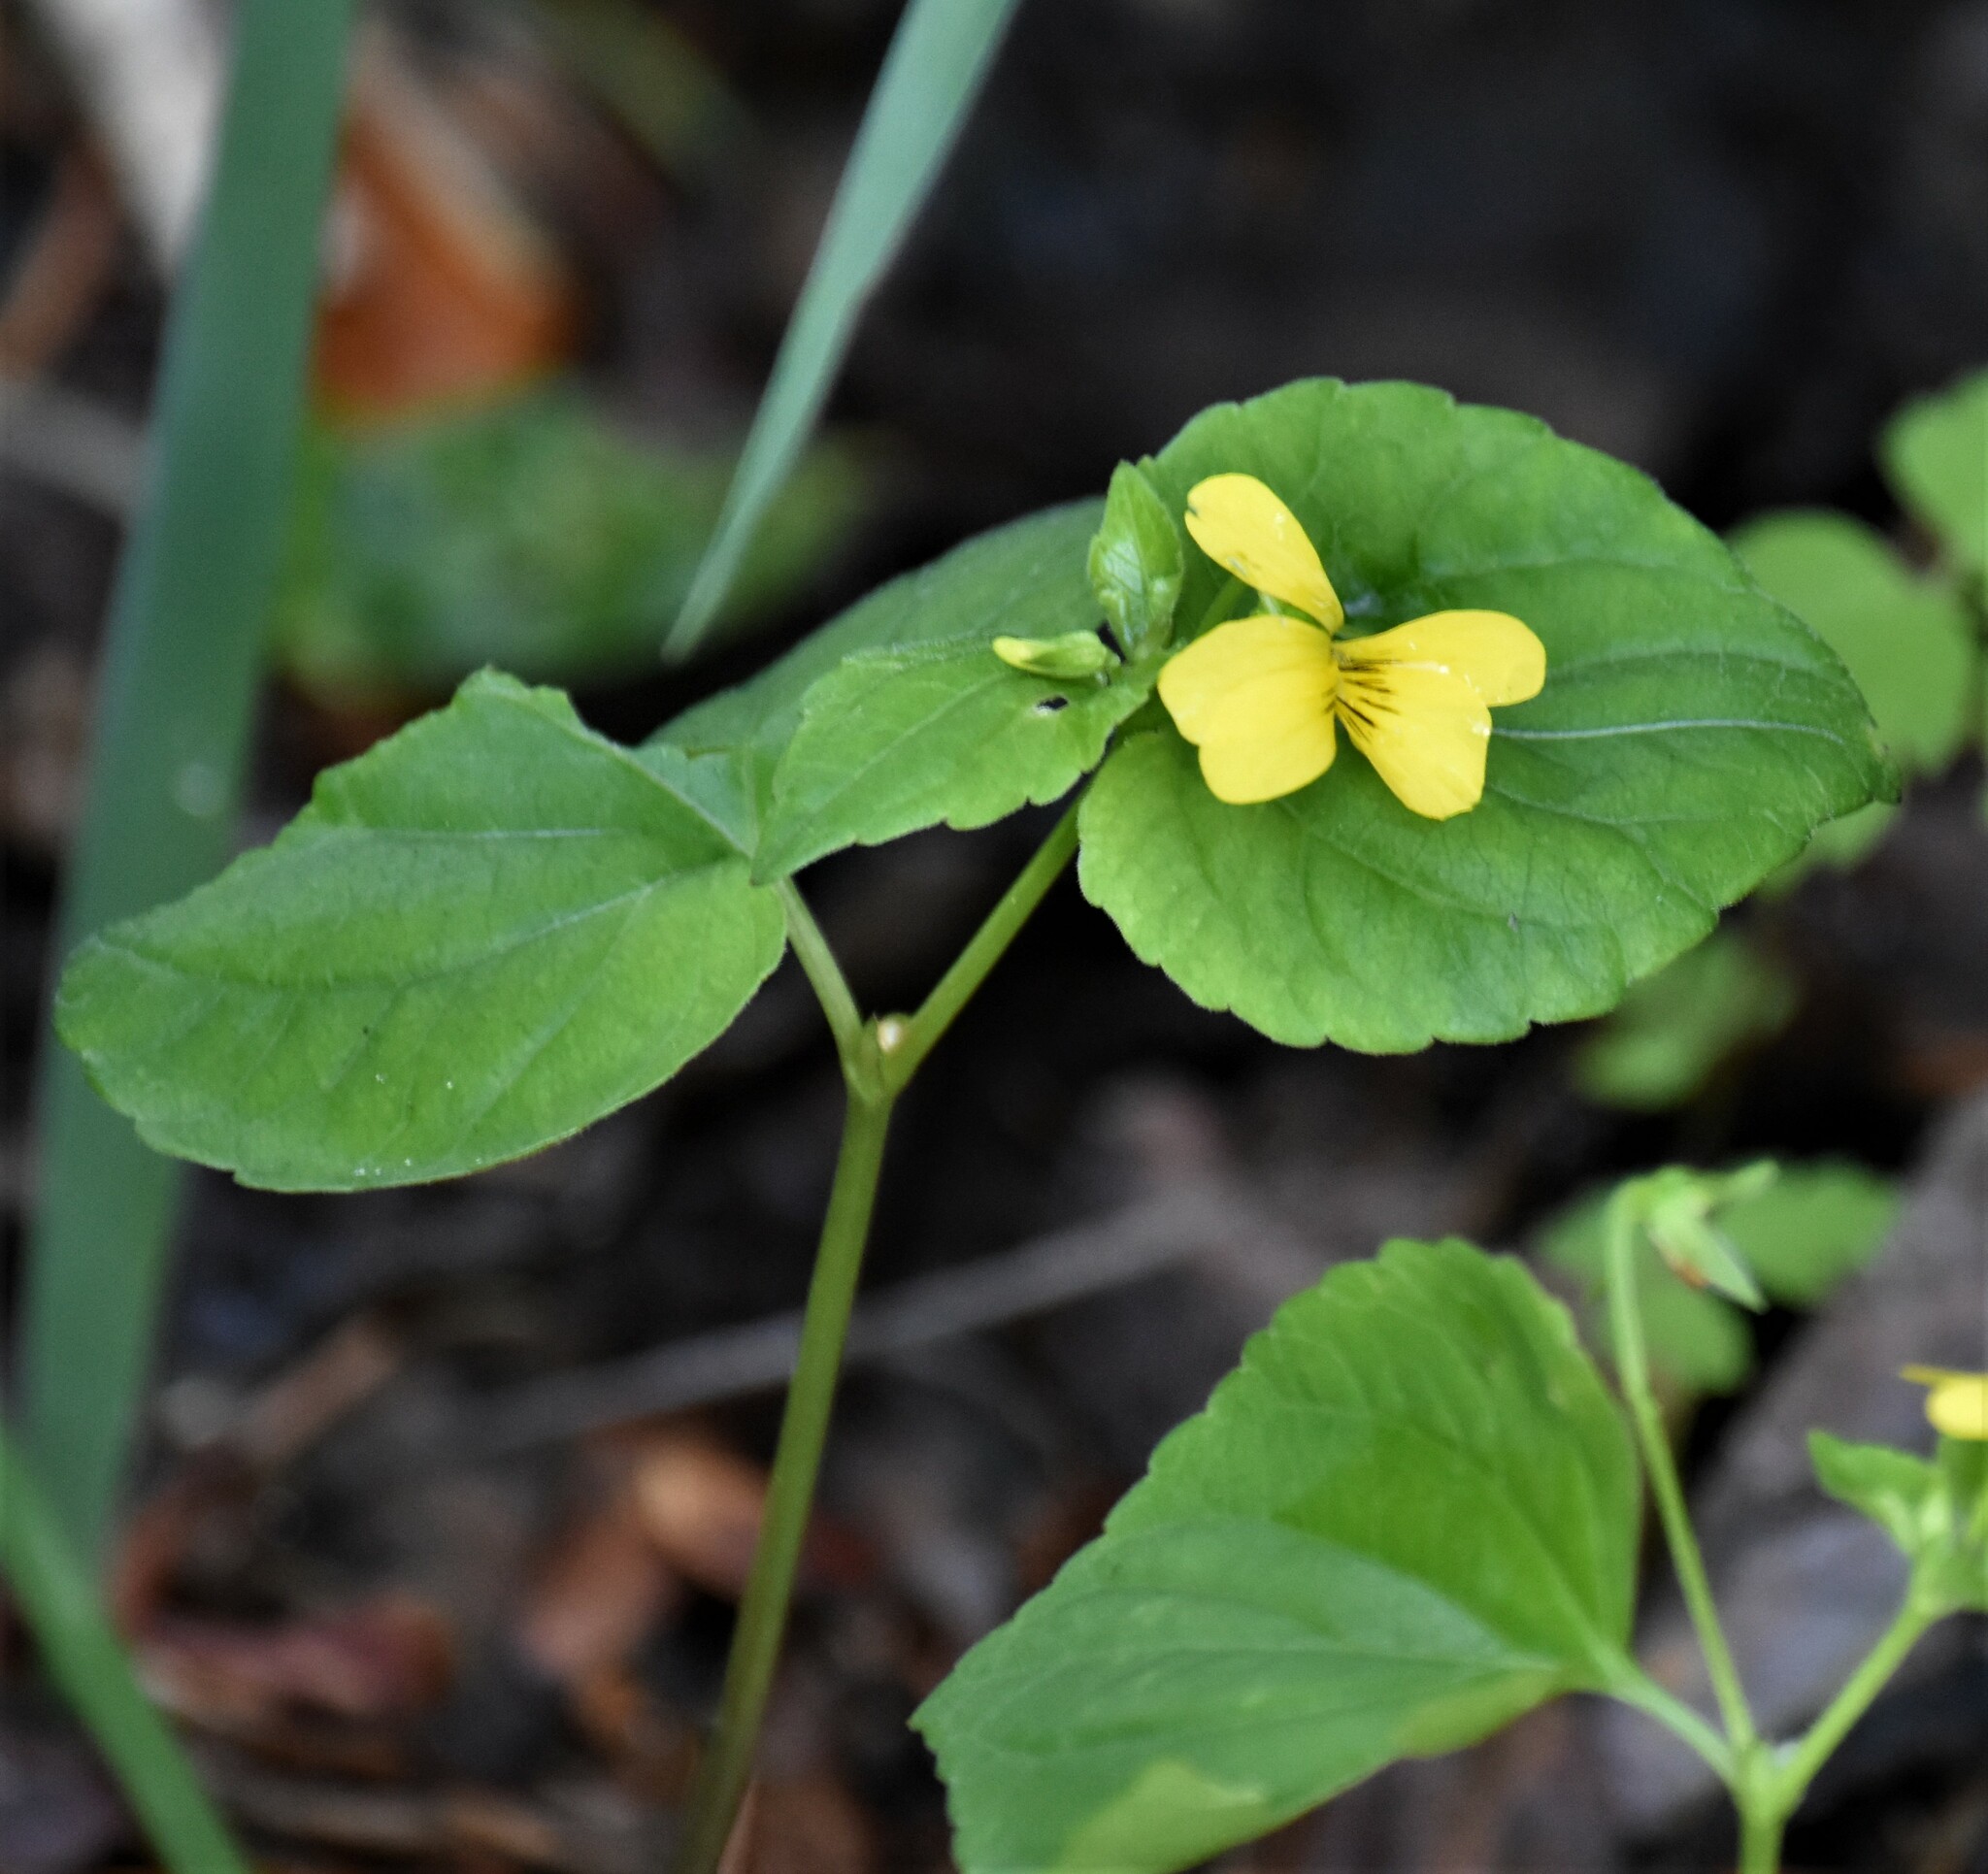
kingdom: Plantae
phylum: Tracheophyta
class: Magnoliopsida
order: Malpighiales
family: Violaceae
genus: Viola
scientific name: Viola glabella
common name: Stream violet
